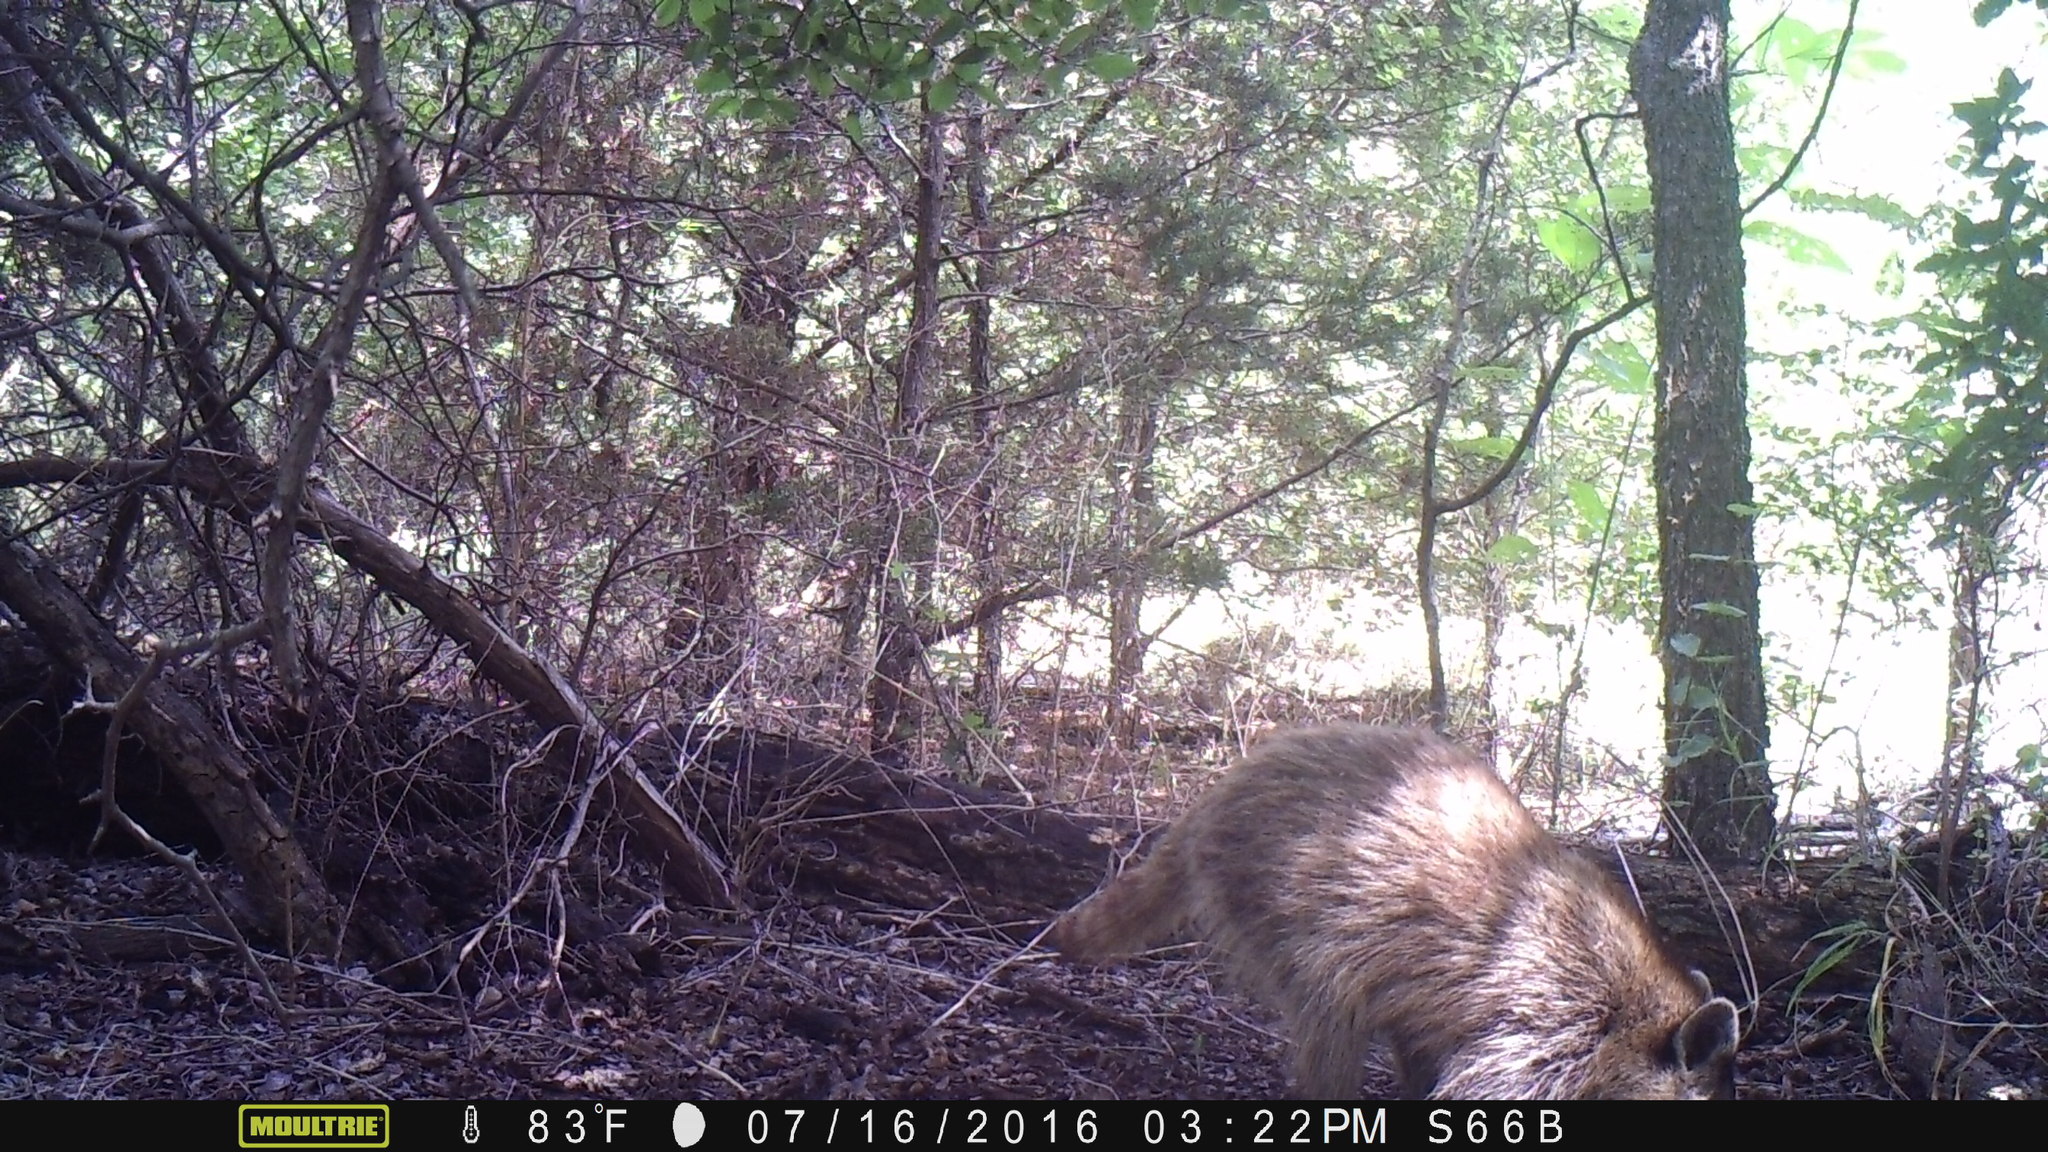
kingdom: Animalia
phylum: Chordata
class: Mammalia
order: Carnivora
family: Procyonidae
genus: Procyon
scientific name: Procyon lotor
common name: Raccoon
